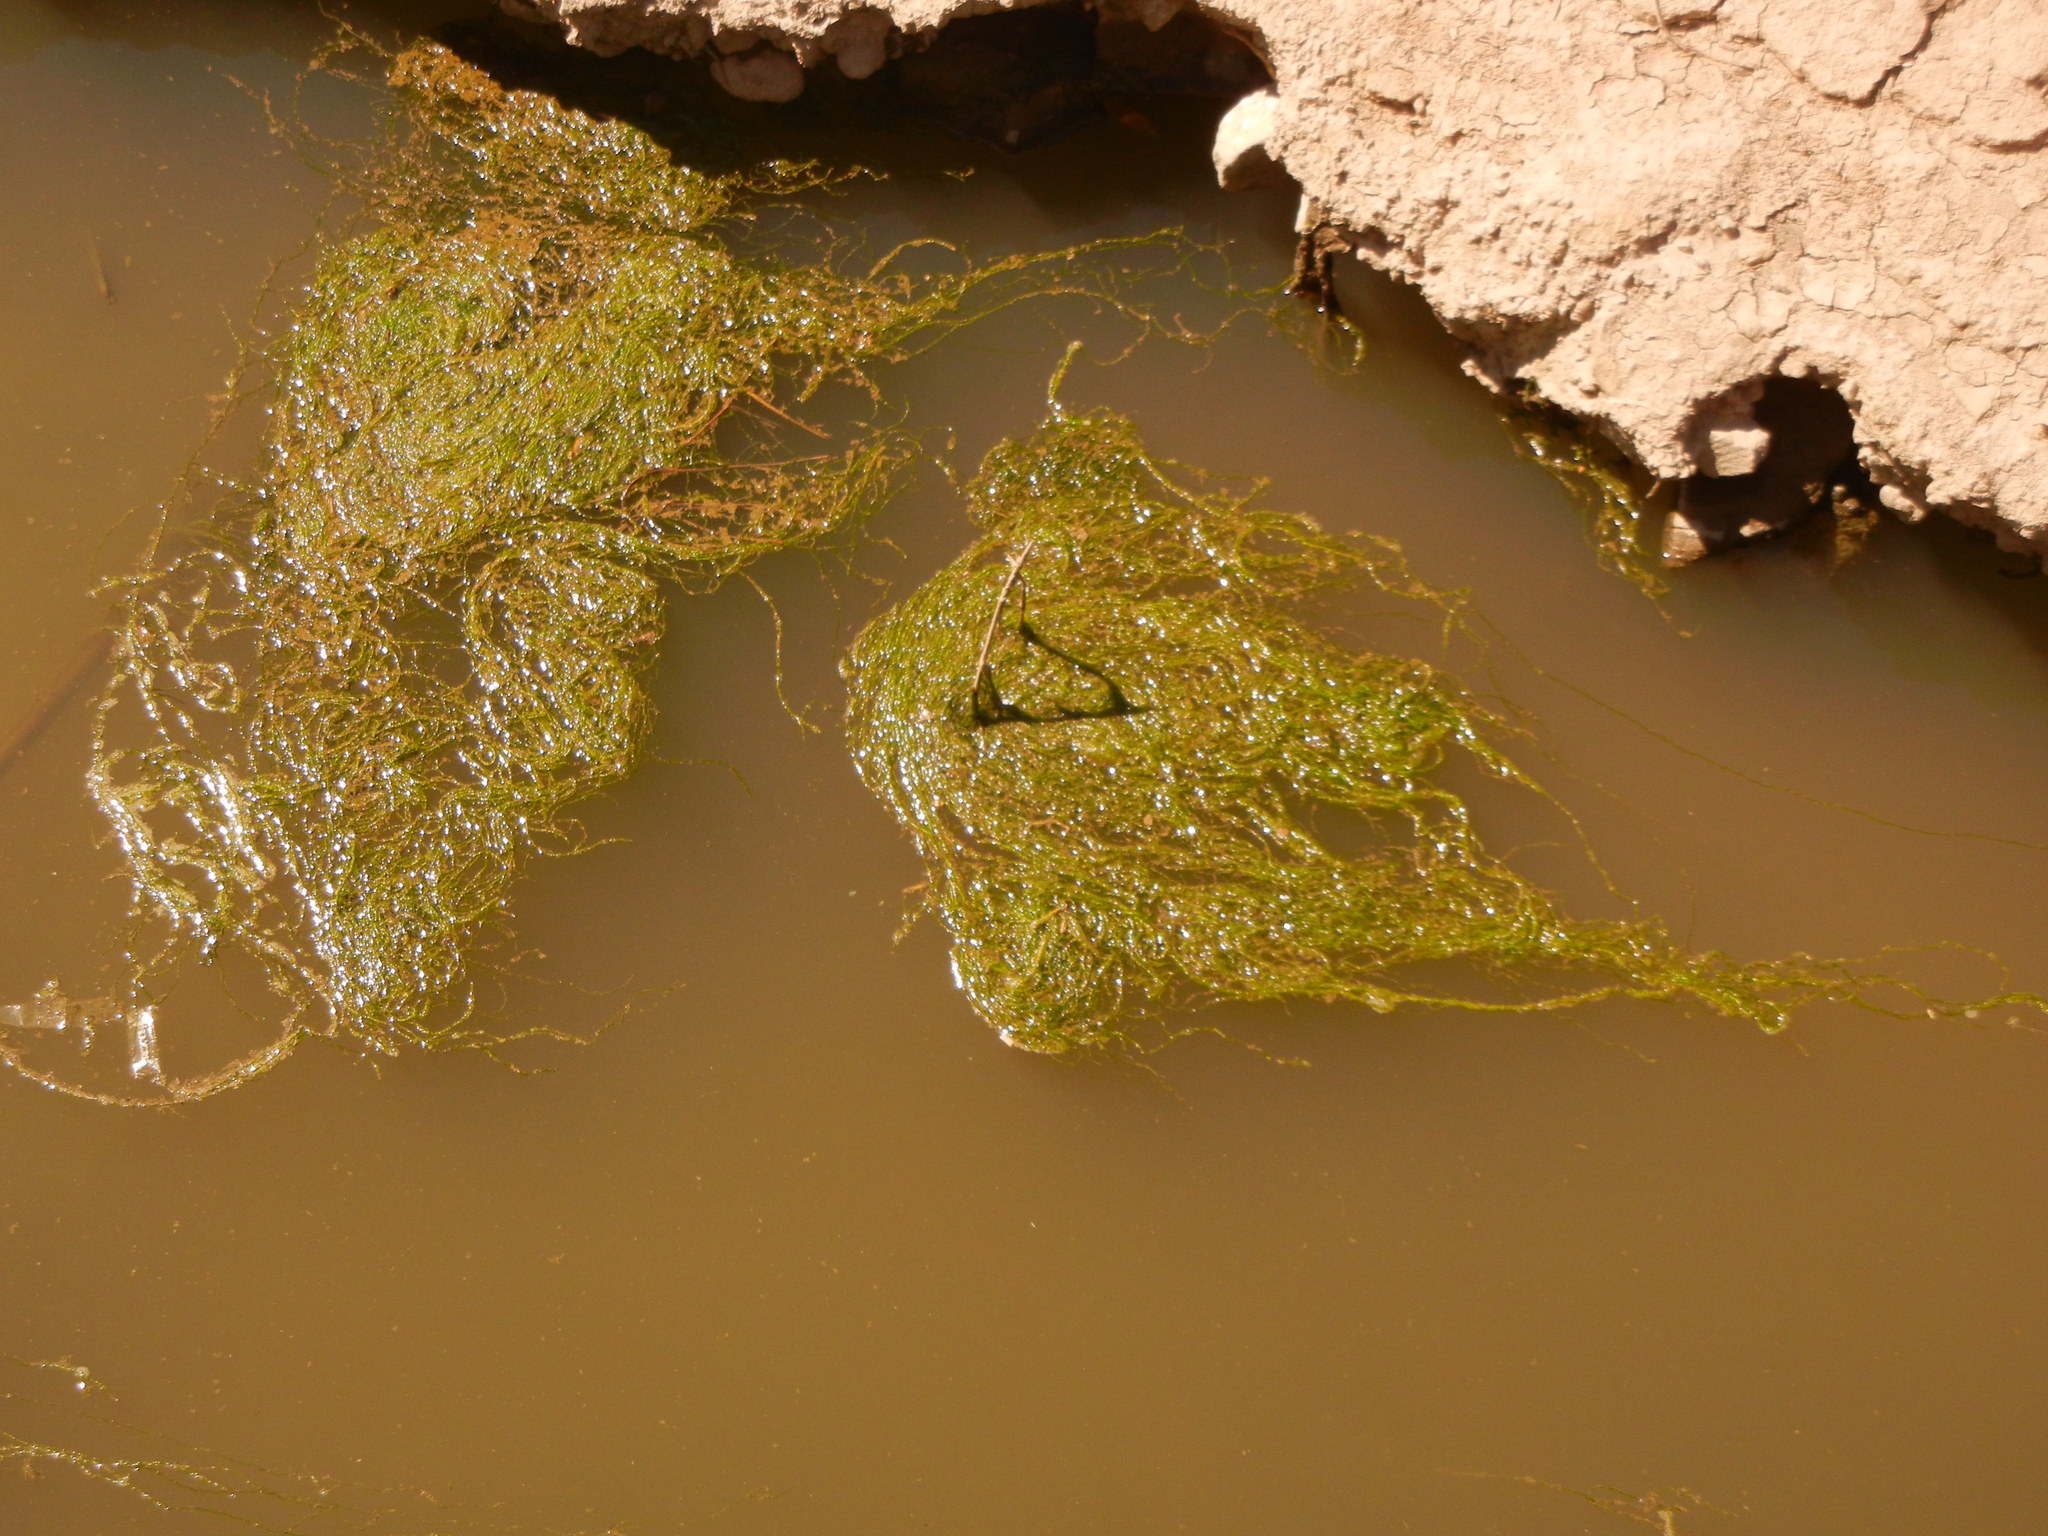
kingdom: Plantae
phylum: Chlorophyta
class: Ulvophyceae
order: Ulvales
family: Ulvaceae
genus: Ulva
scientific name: Ulva intestinalis
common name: Gut weed
